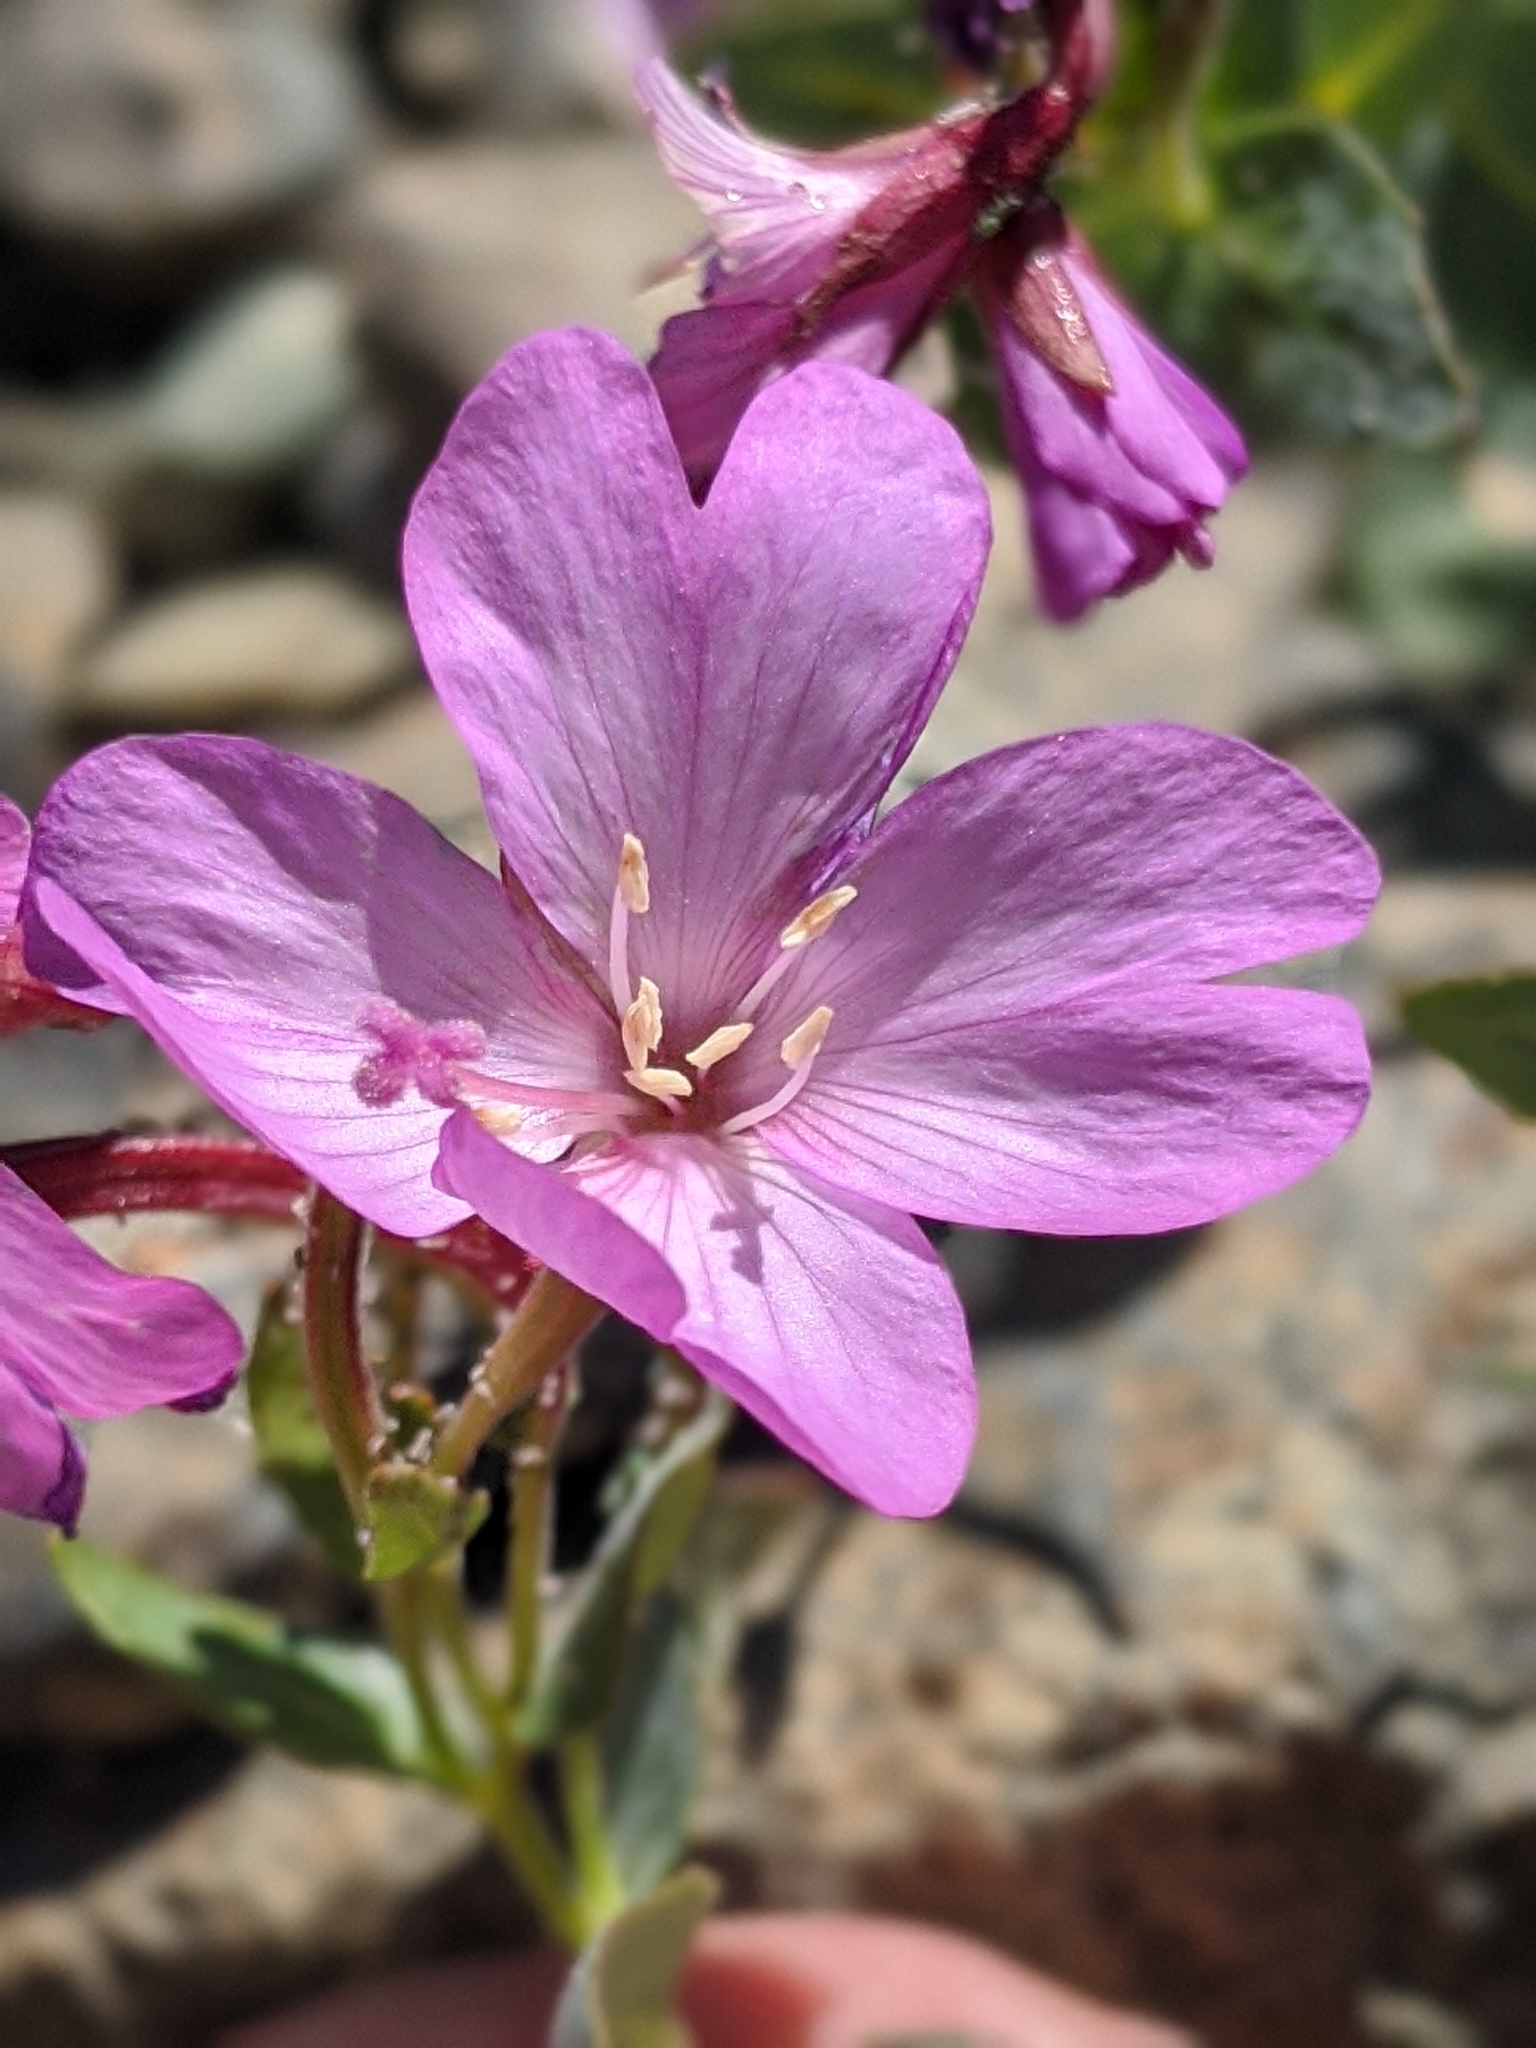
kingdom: Plantae
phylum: Tracheophyta
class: Magnoliopsida
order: Myrtales
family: Onagraceae
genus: Epilobium
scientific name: Epilobium siskiyouense
